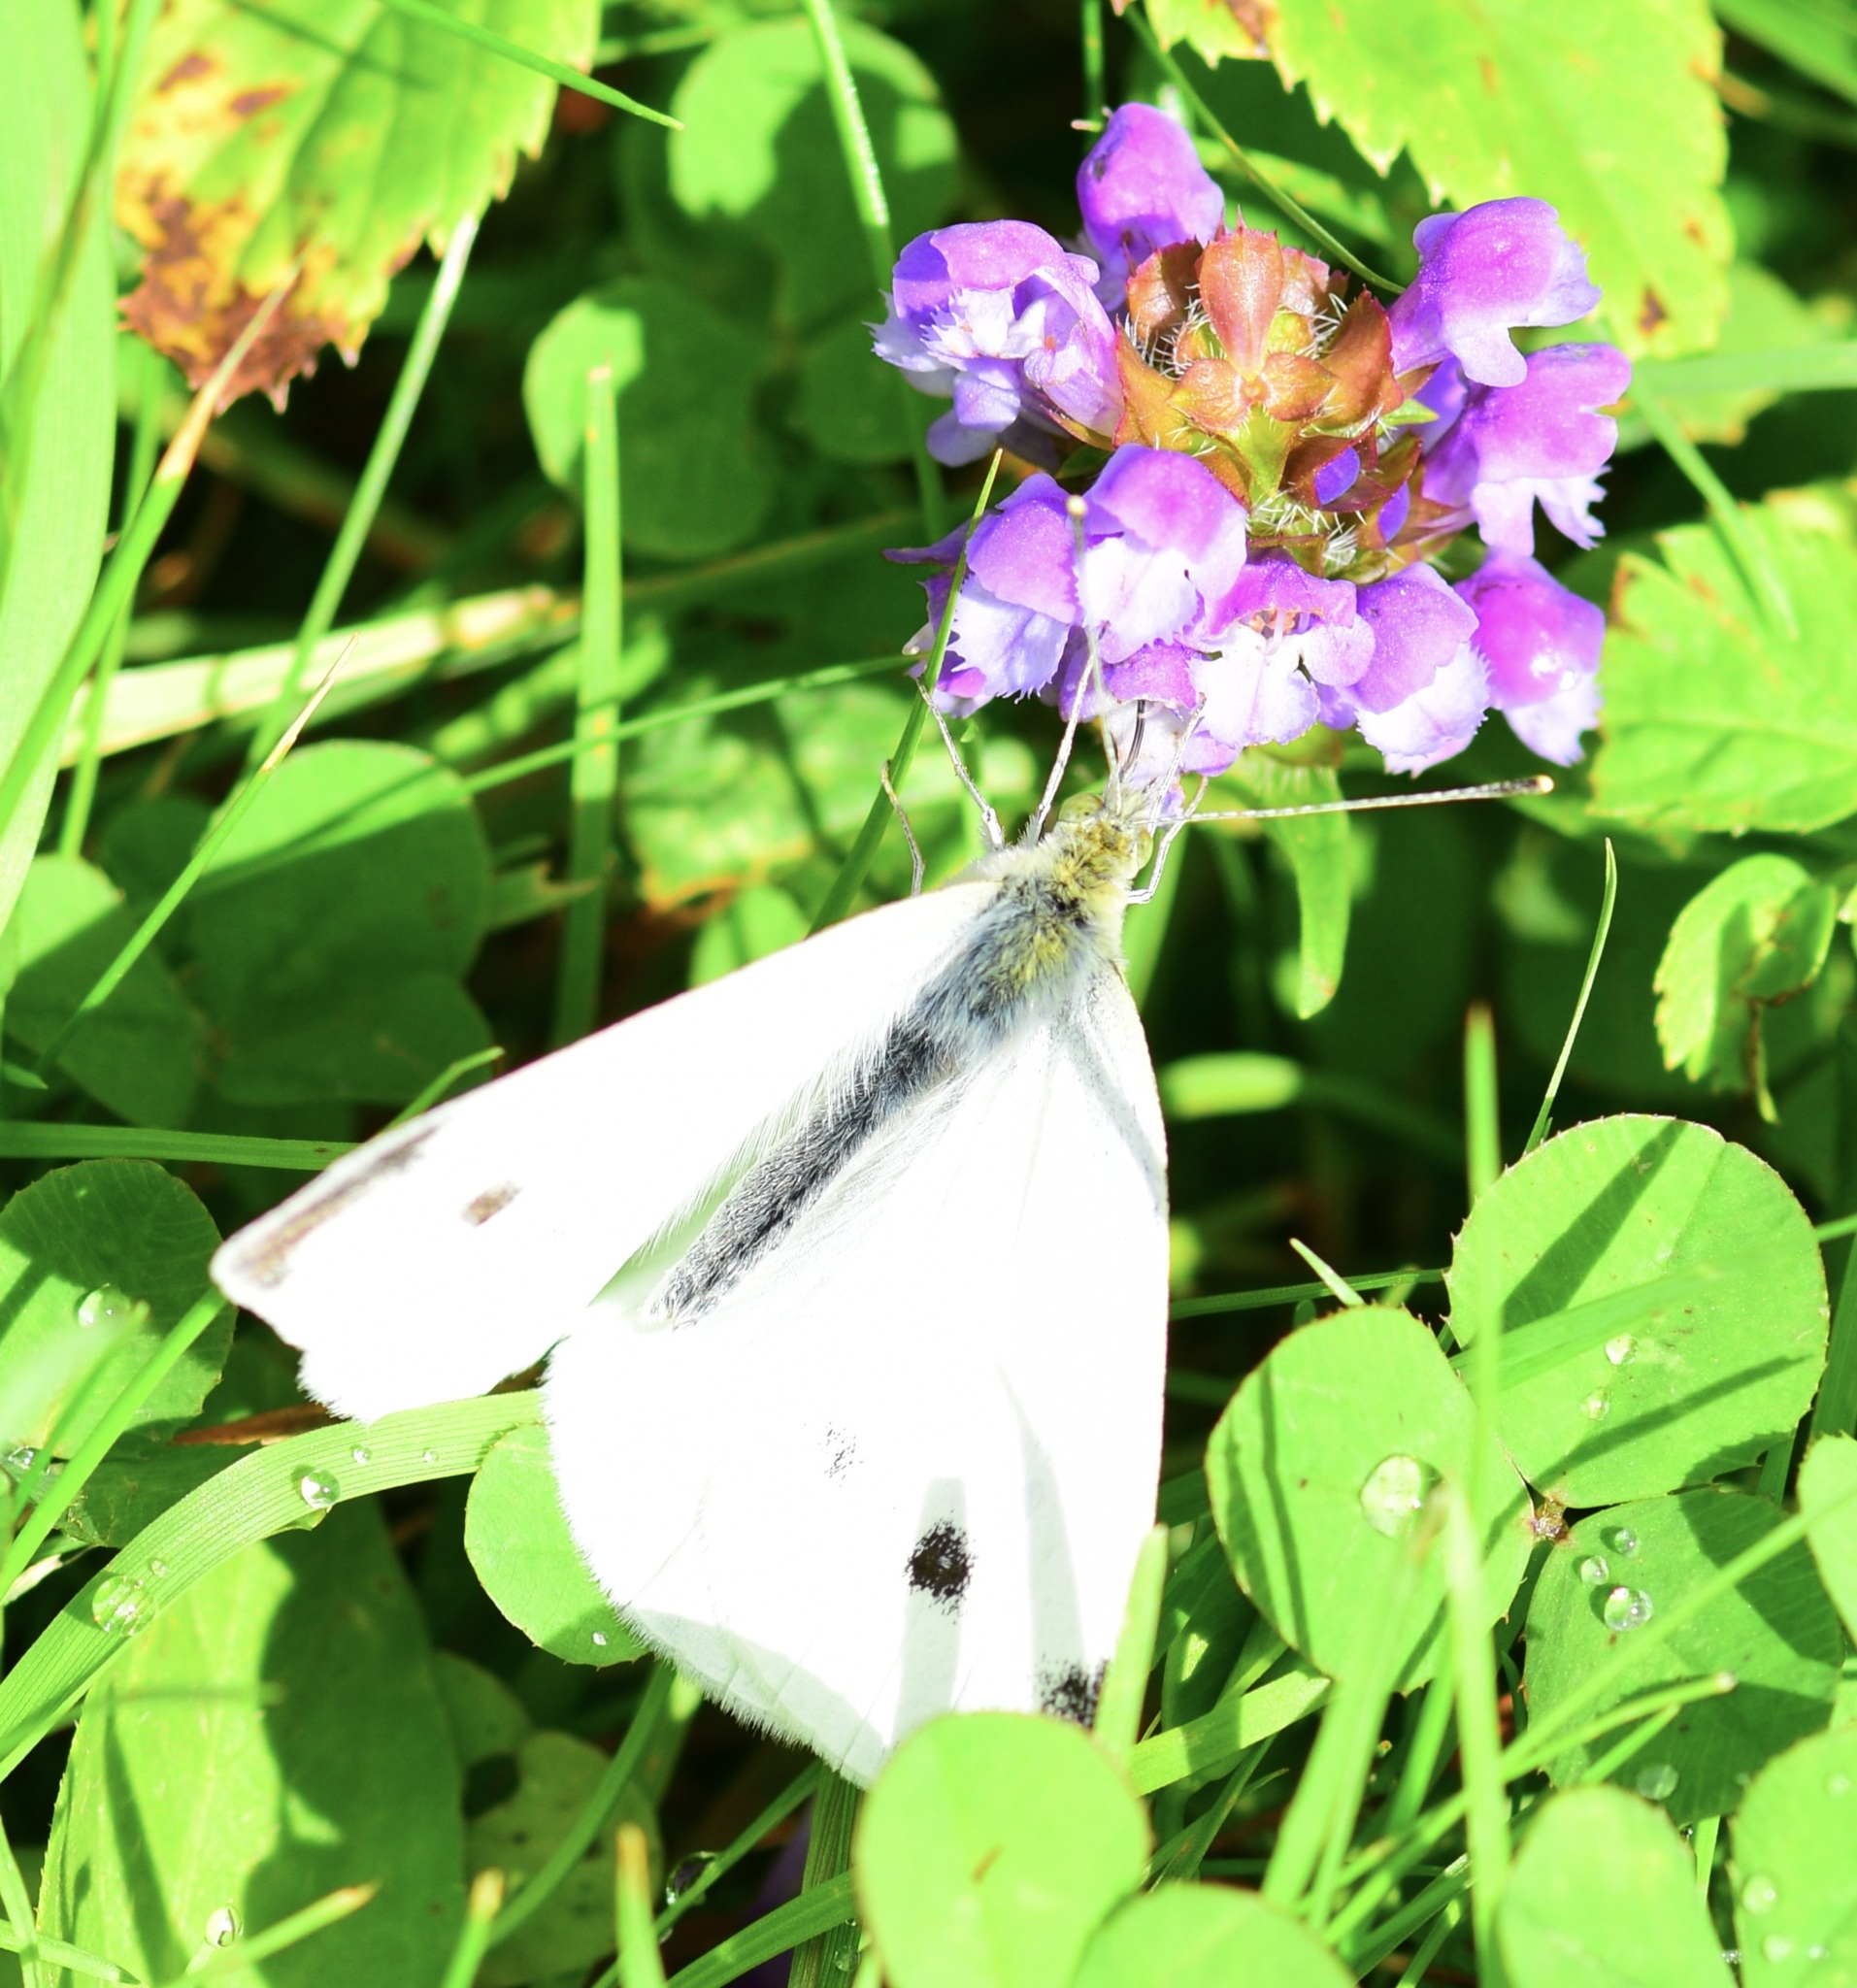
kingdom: Animalia
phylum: Arthropoda
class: Insecta
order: Lepidoptera
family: Pieridae
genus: Pieris
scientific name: Pieris rapae
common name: Small white
